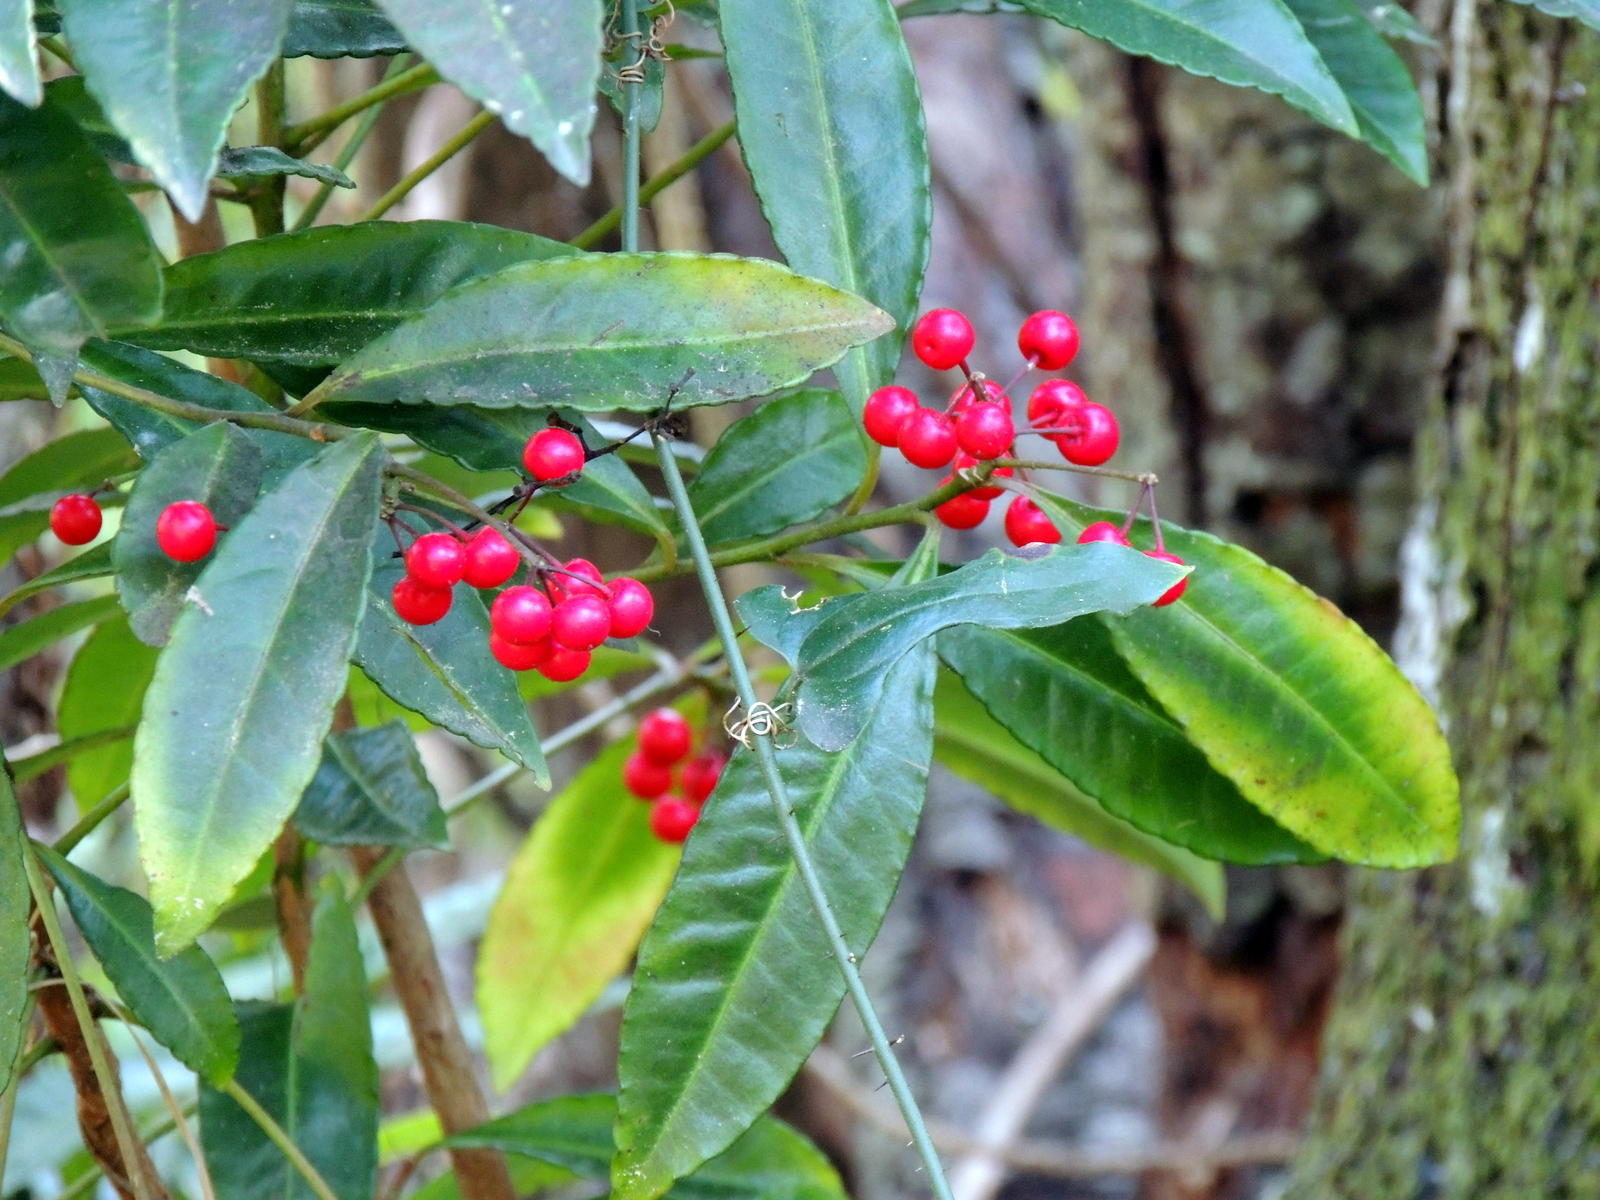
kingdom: Plantae
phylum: Tracheophyta
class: Magnoliopsida
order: Ericales
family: Primulaceae
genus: Ardisia
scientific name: Ardisia crenata
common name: Hen's eyes
